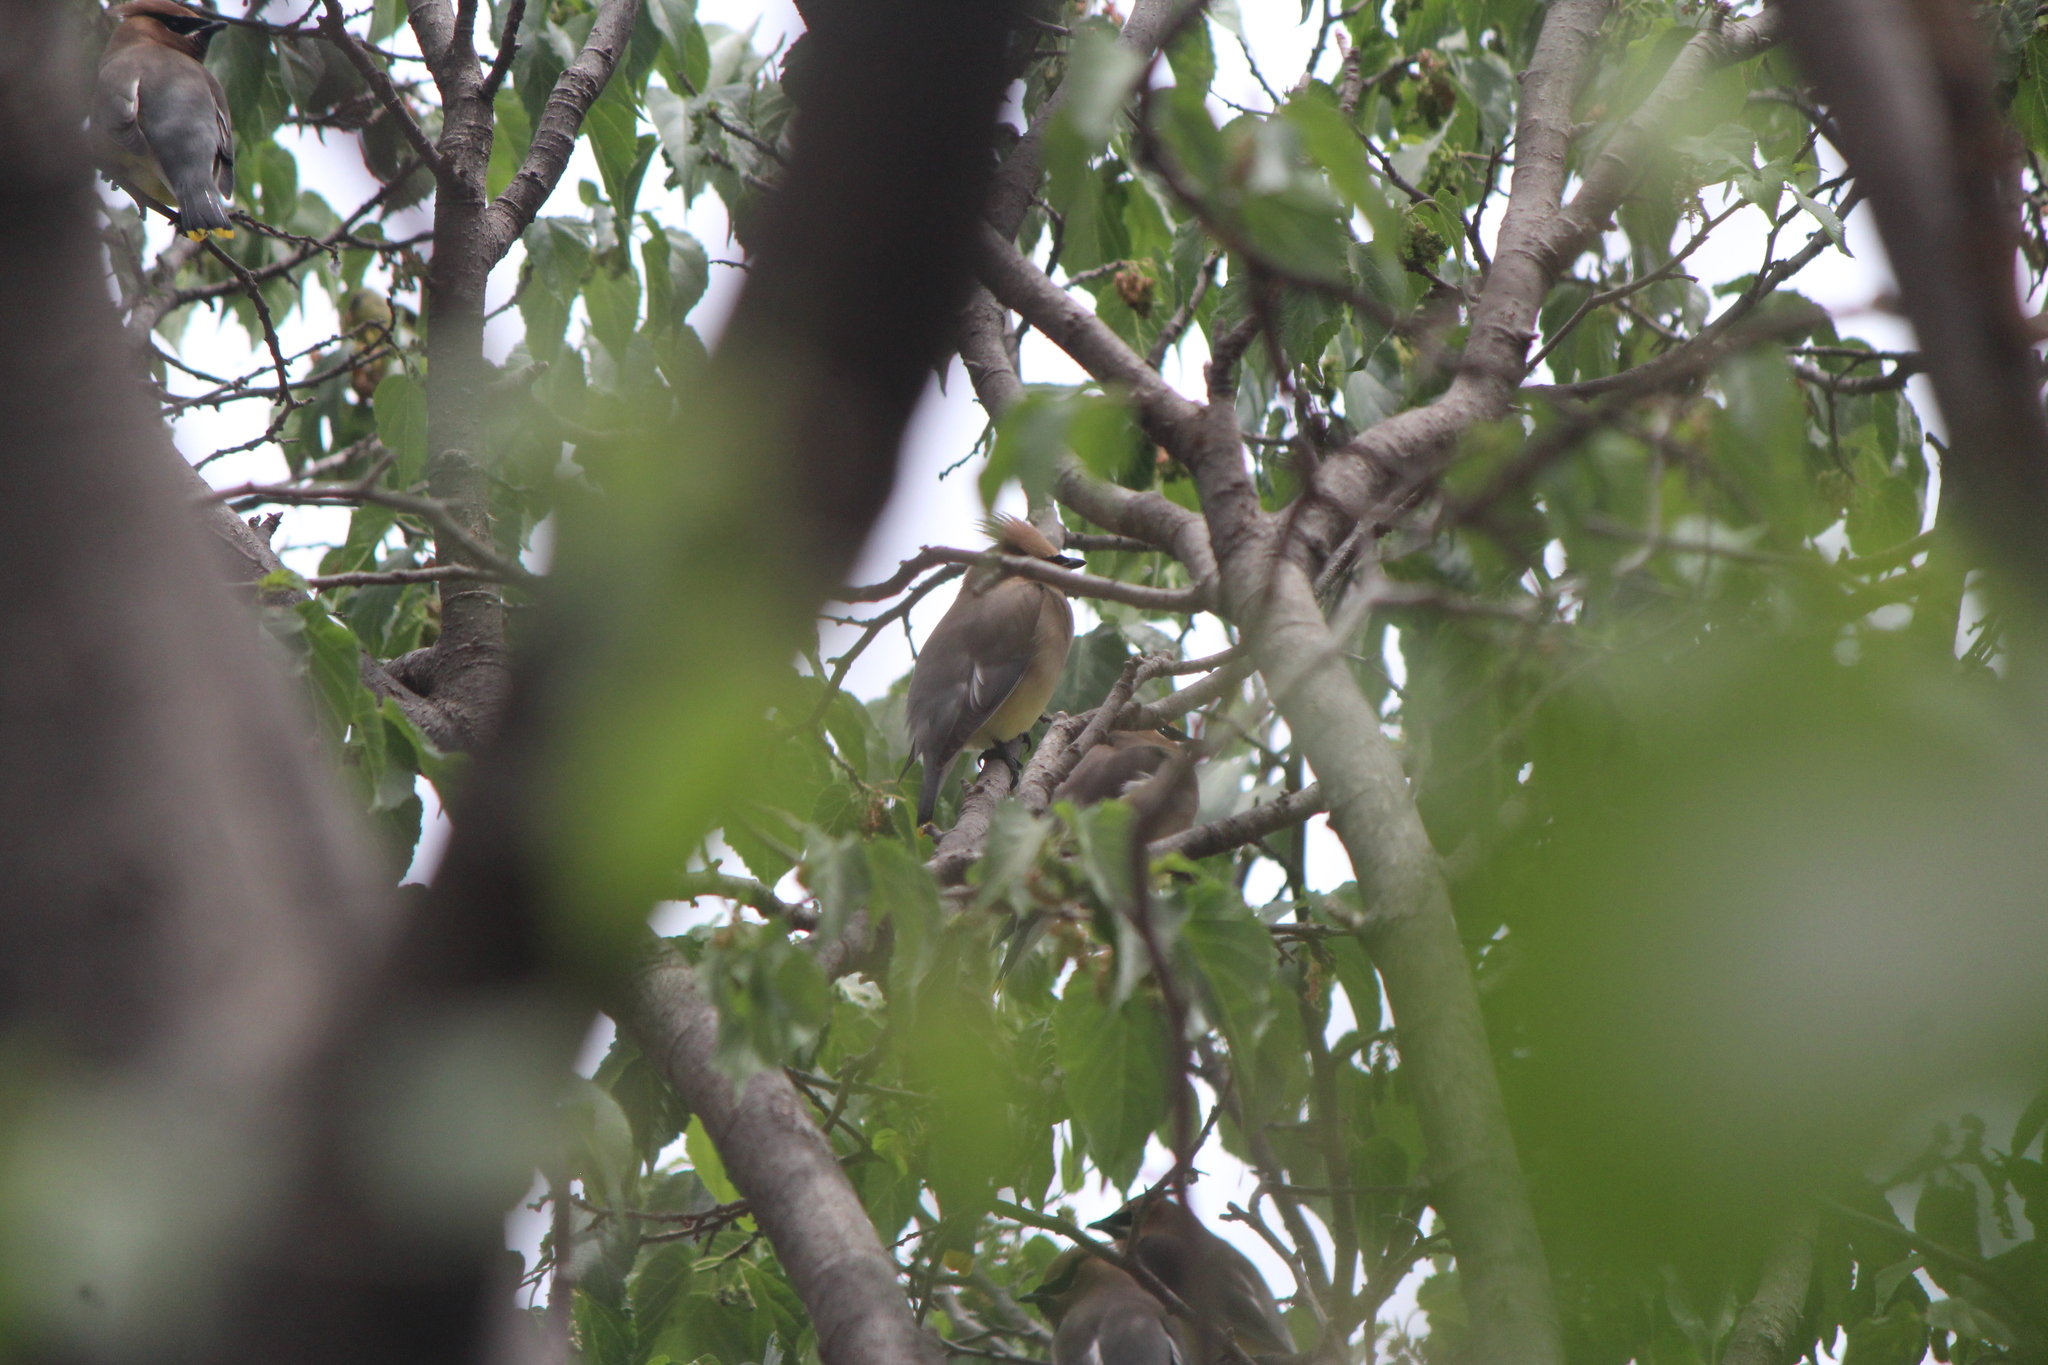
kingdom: Animalia
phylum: Chordata
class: Aves
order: Passeriformes
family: Bombycillidae
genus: Bombycilla
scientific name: Bombycilla cedrorum
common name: Cedar waxwing
